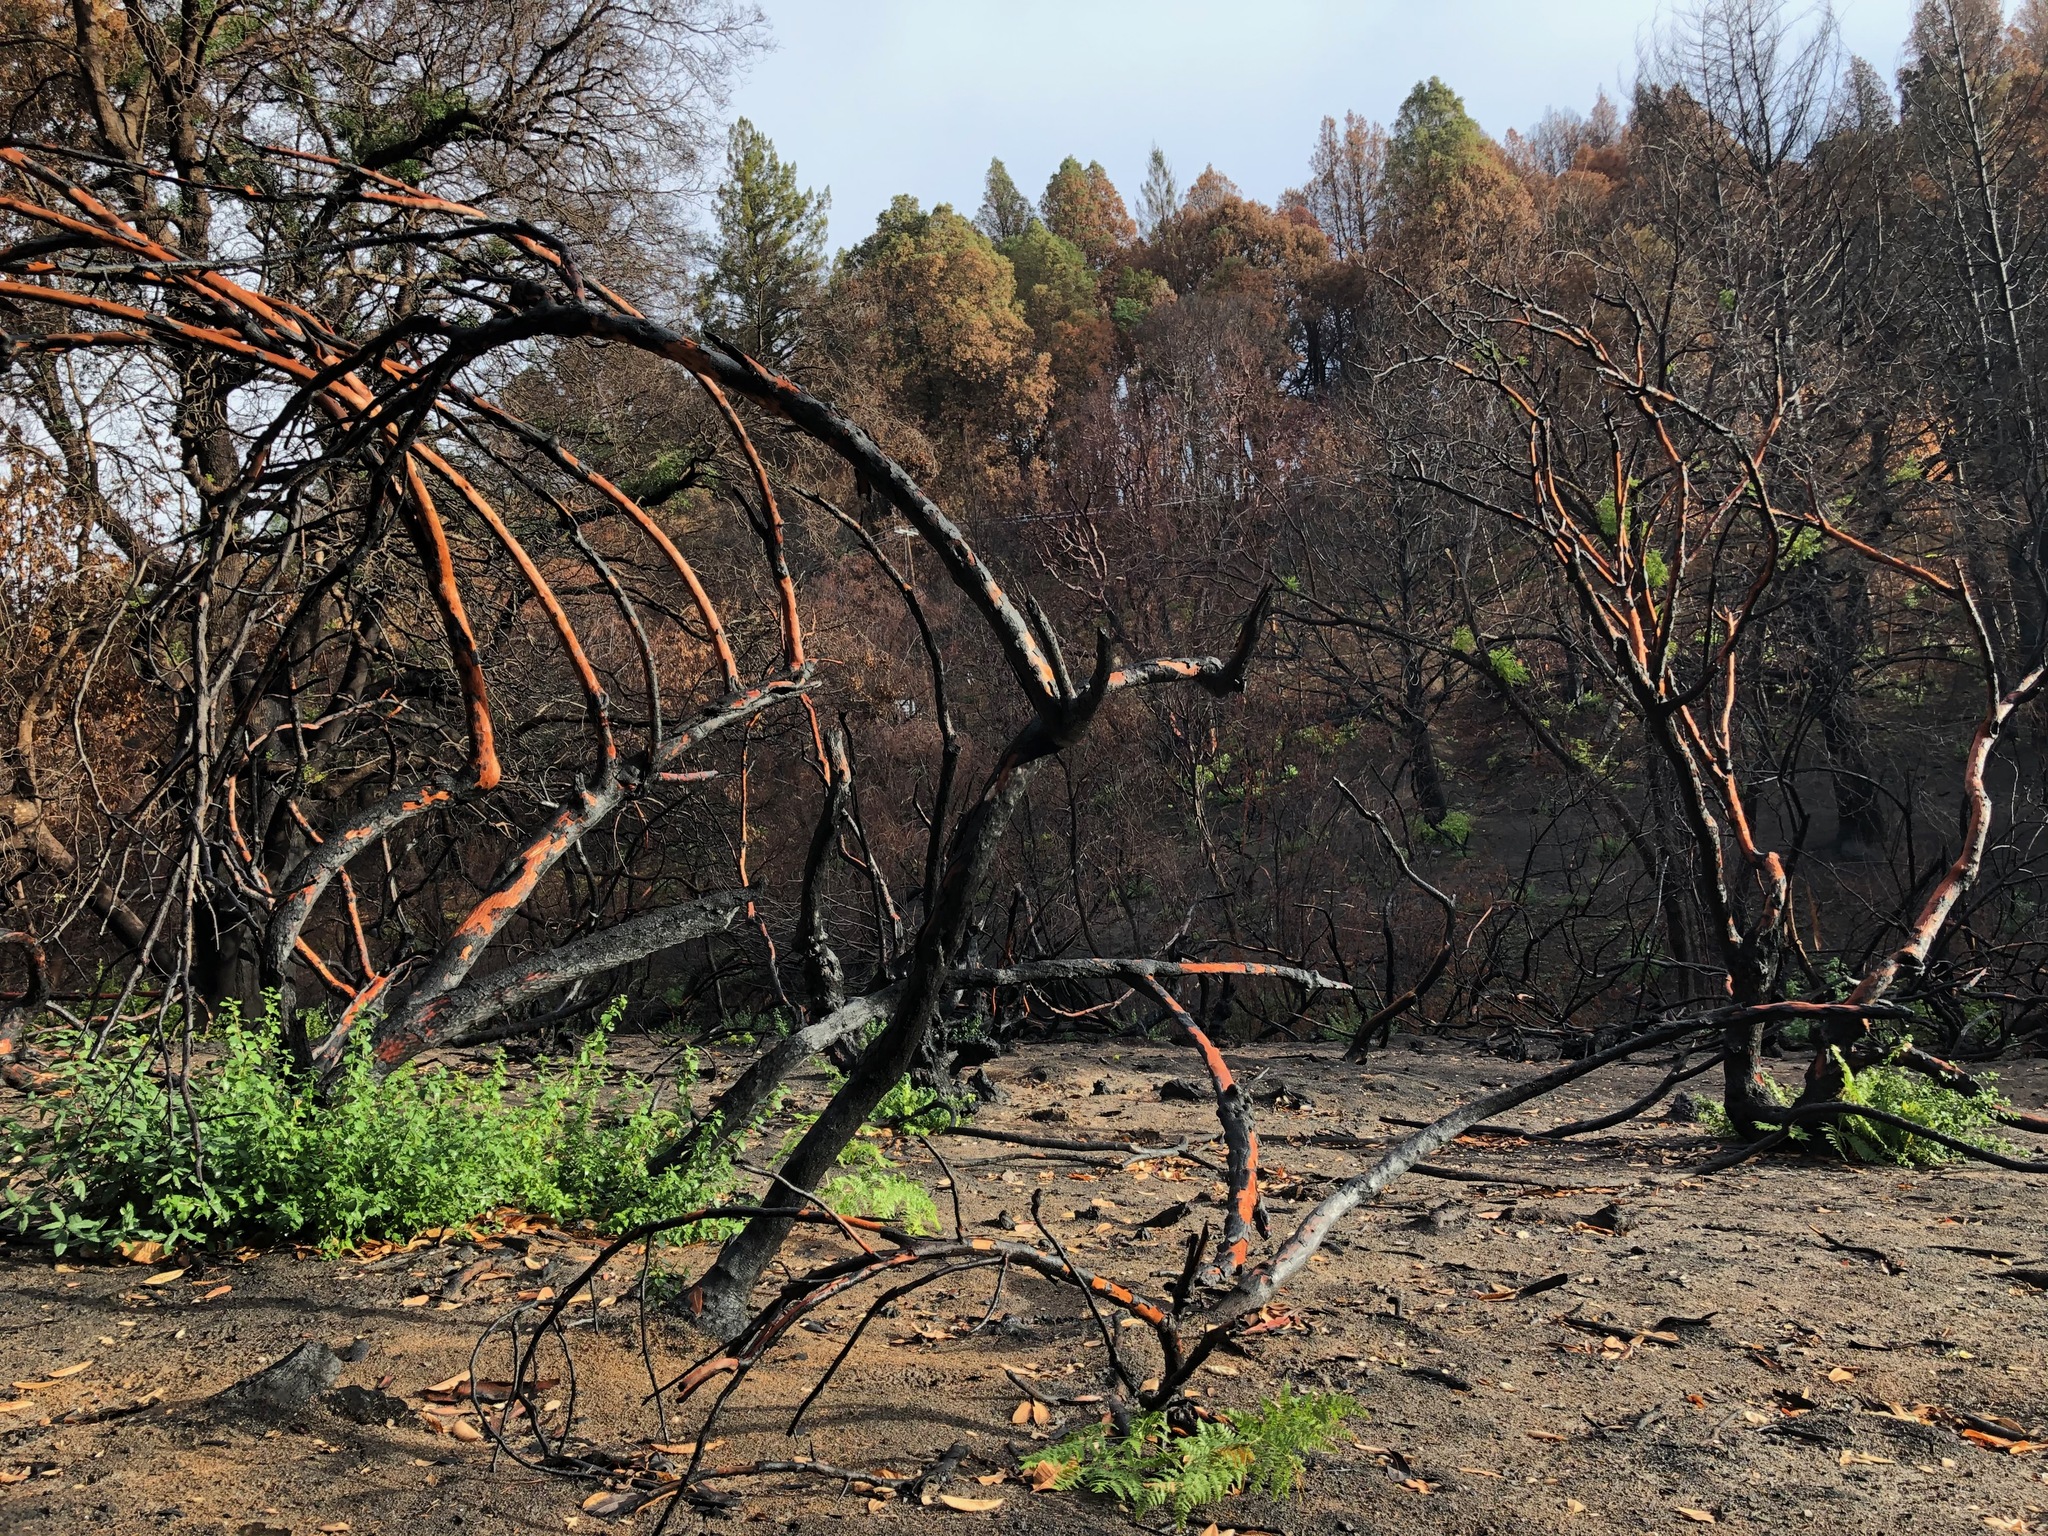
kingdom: Plantae
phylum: Tracheophyta
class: Magnoliopsida
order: Ericales
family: Ericaceae
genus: Arbutus
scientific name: Arbutus menziesii
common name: Pacific madrone
